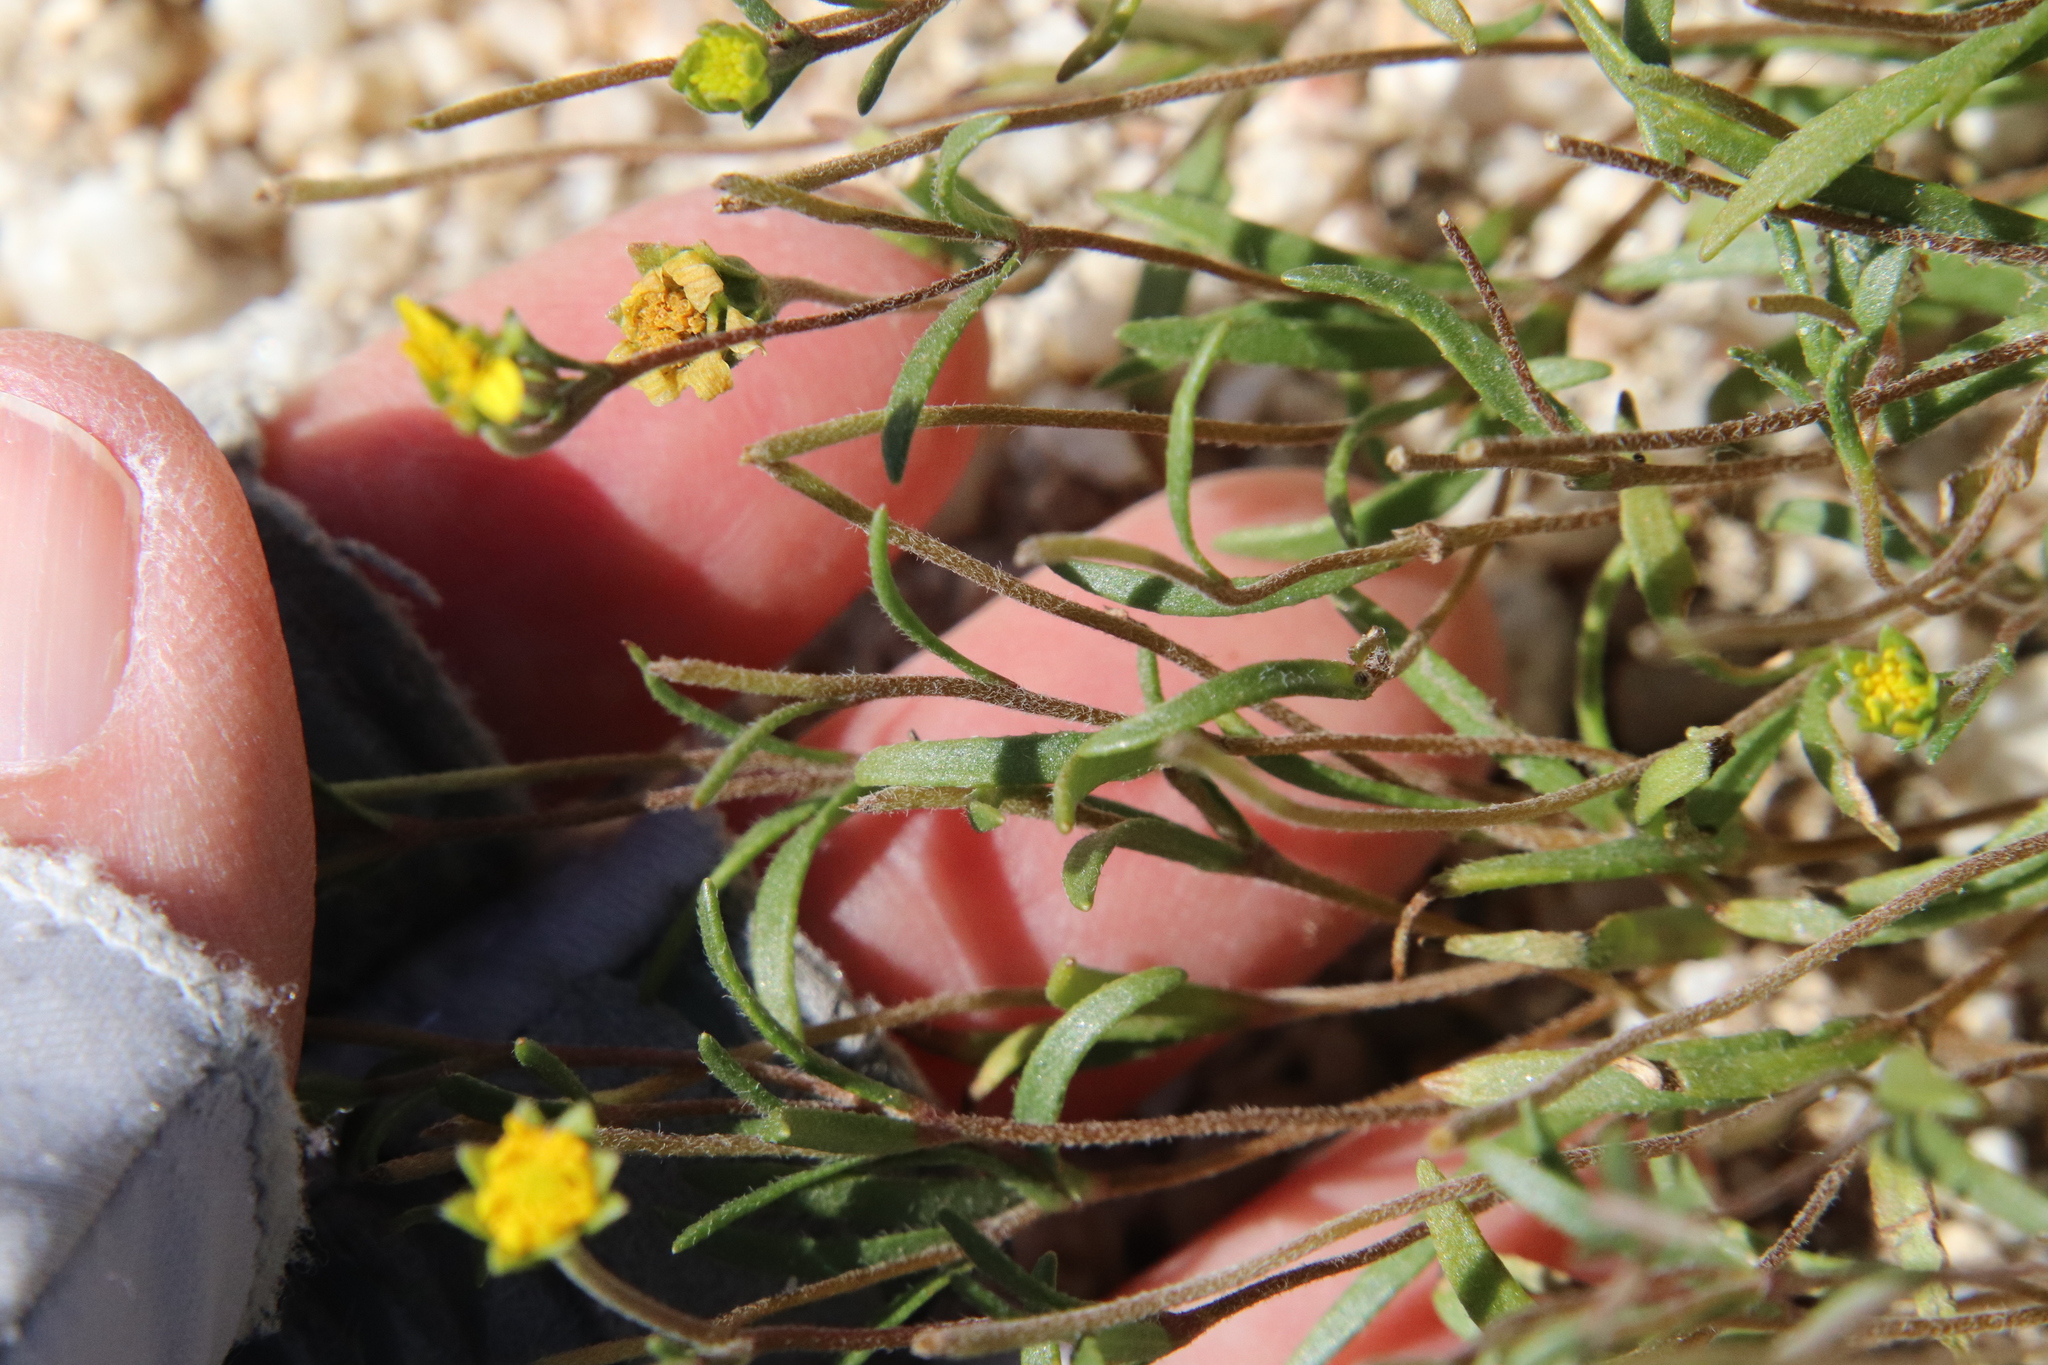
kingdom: Plantae
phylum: Tracheophyta
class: Magnoliopsida
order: Asterales
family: Asteraceae
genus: Lasthenia
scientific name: Lasthenia gracilis
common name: Common goldfields
